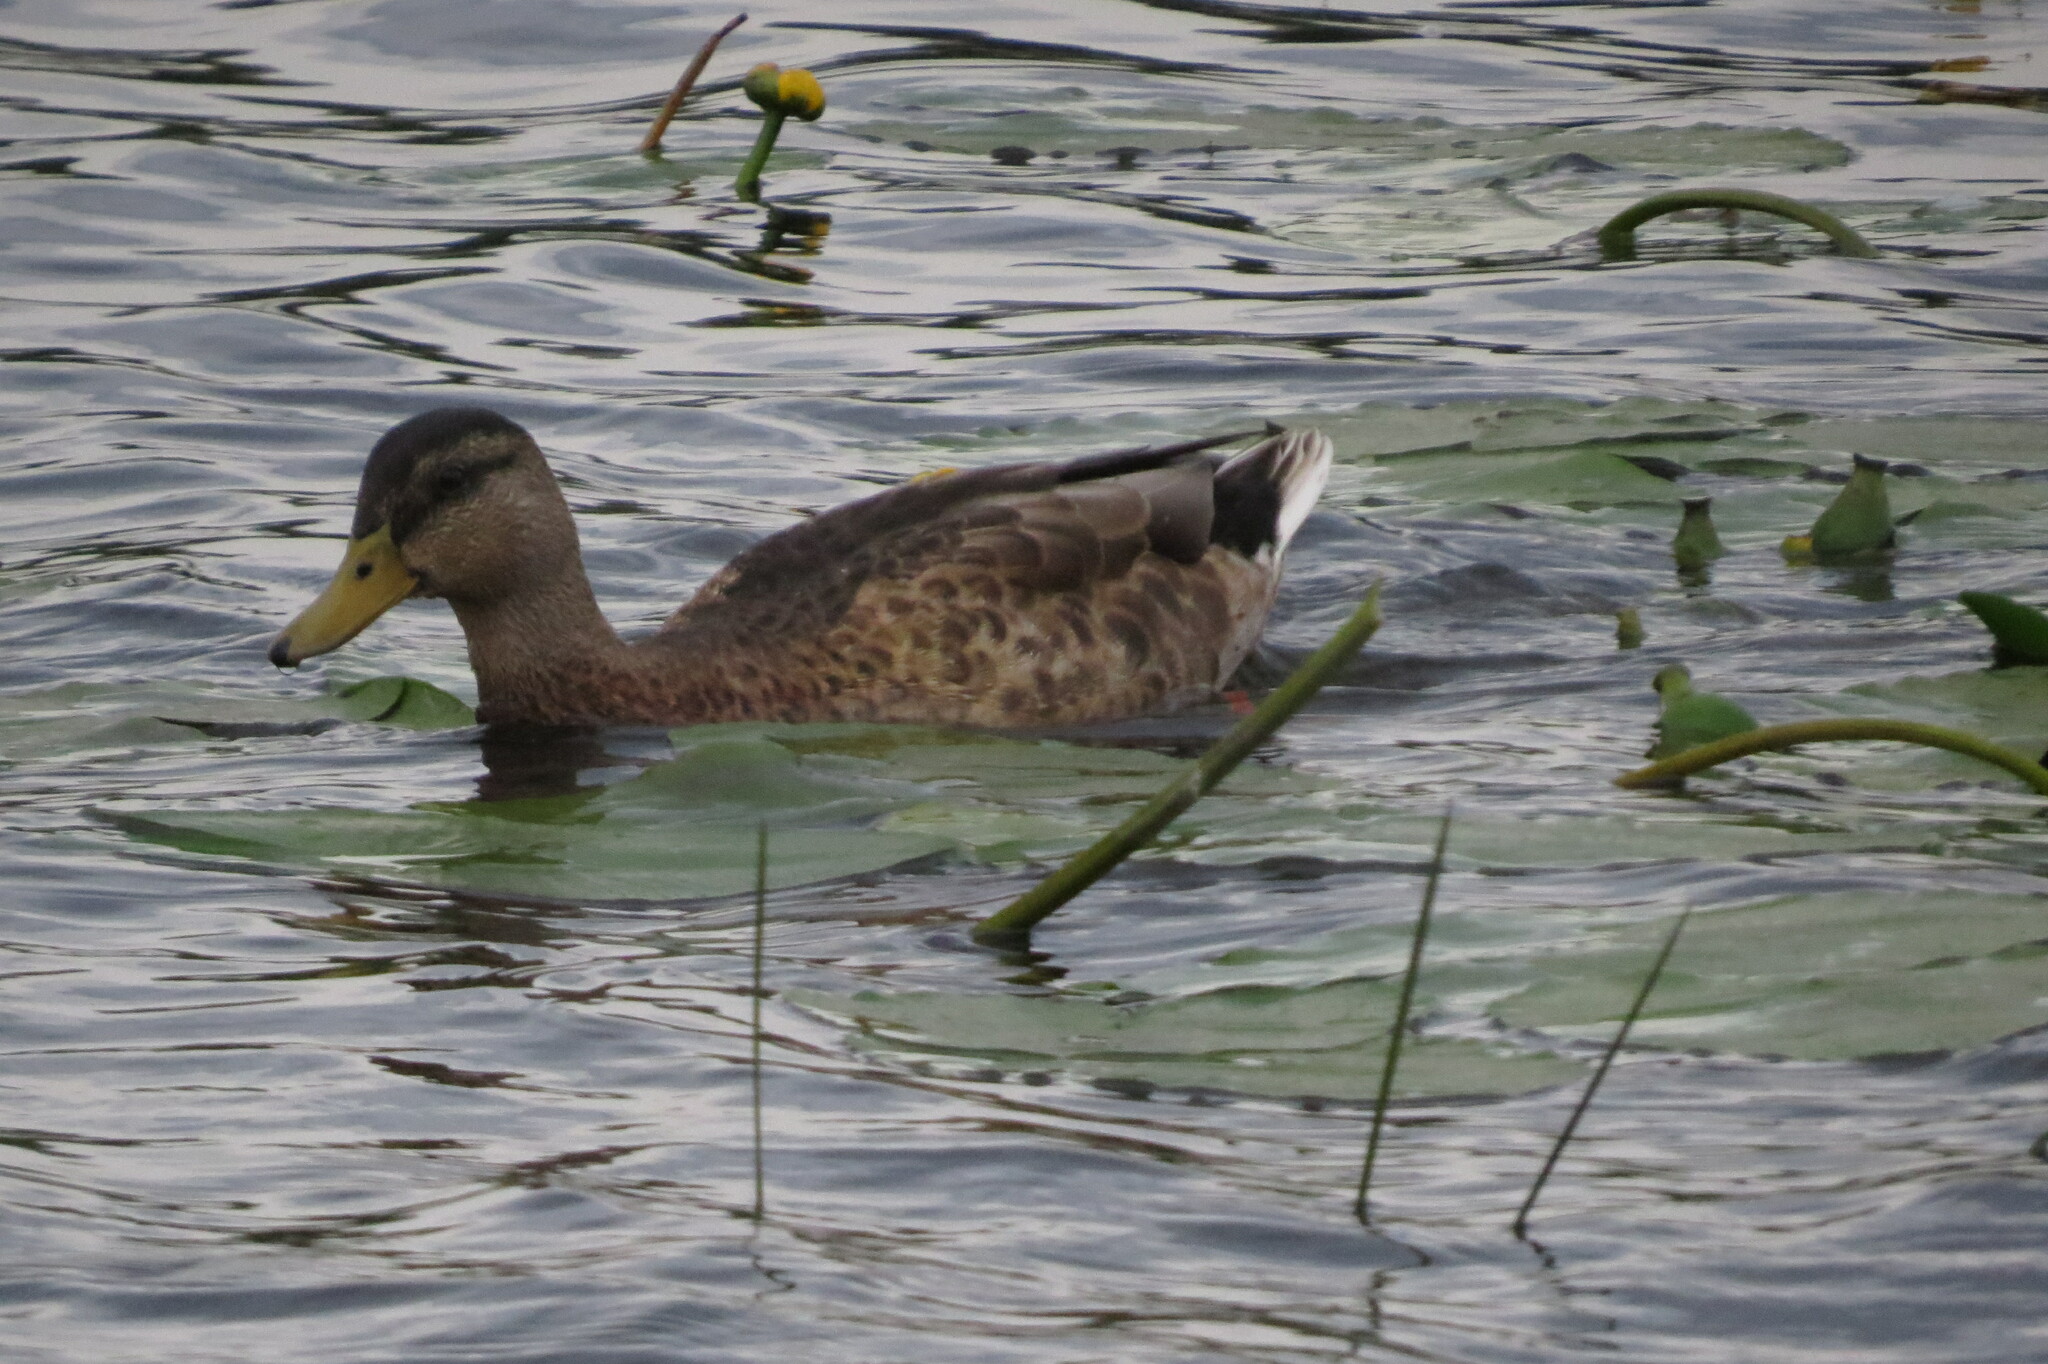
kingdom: Animalia
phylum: Chordata
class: Aves
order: Anseriformes
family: Anatidae
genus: Anas
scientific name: Anas platyrhynchos
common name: Mallard
